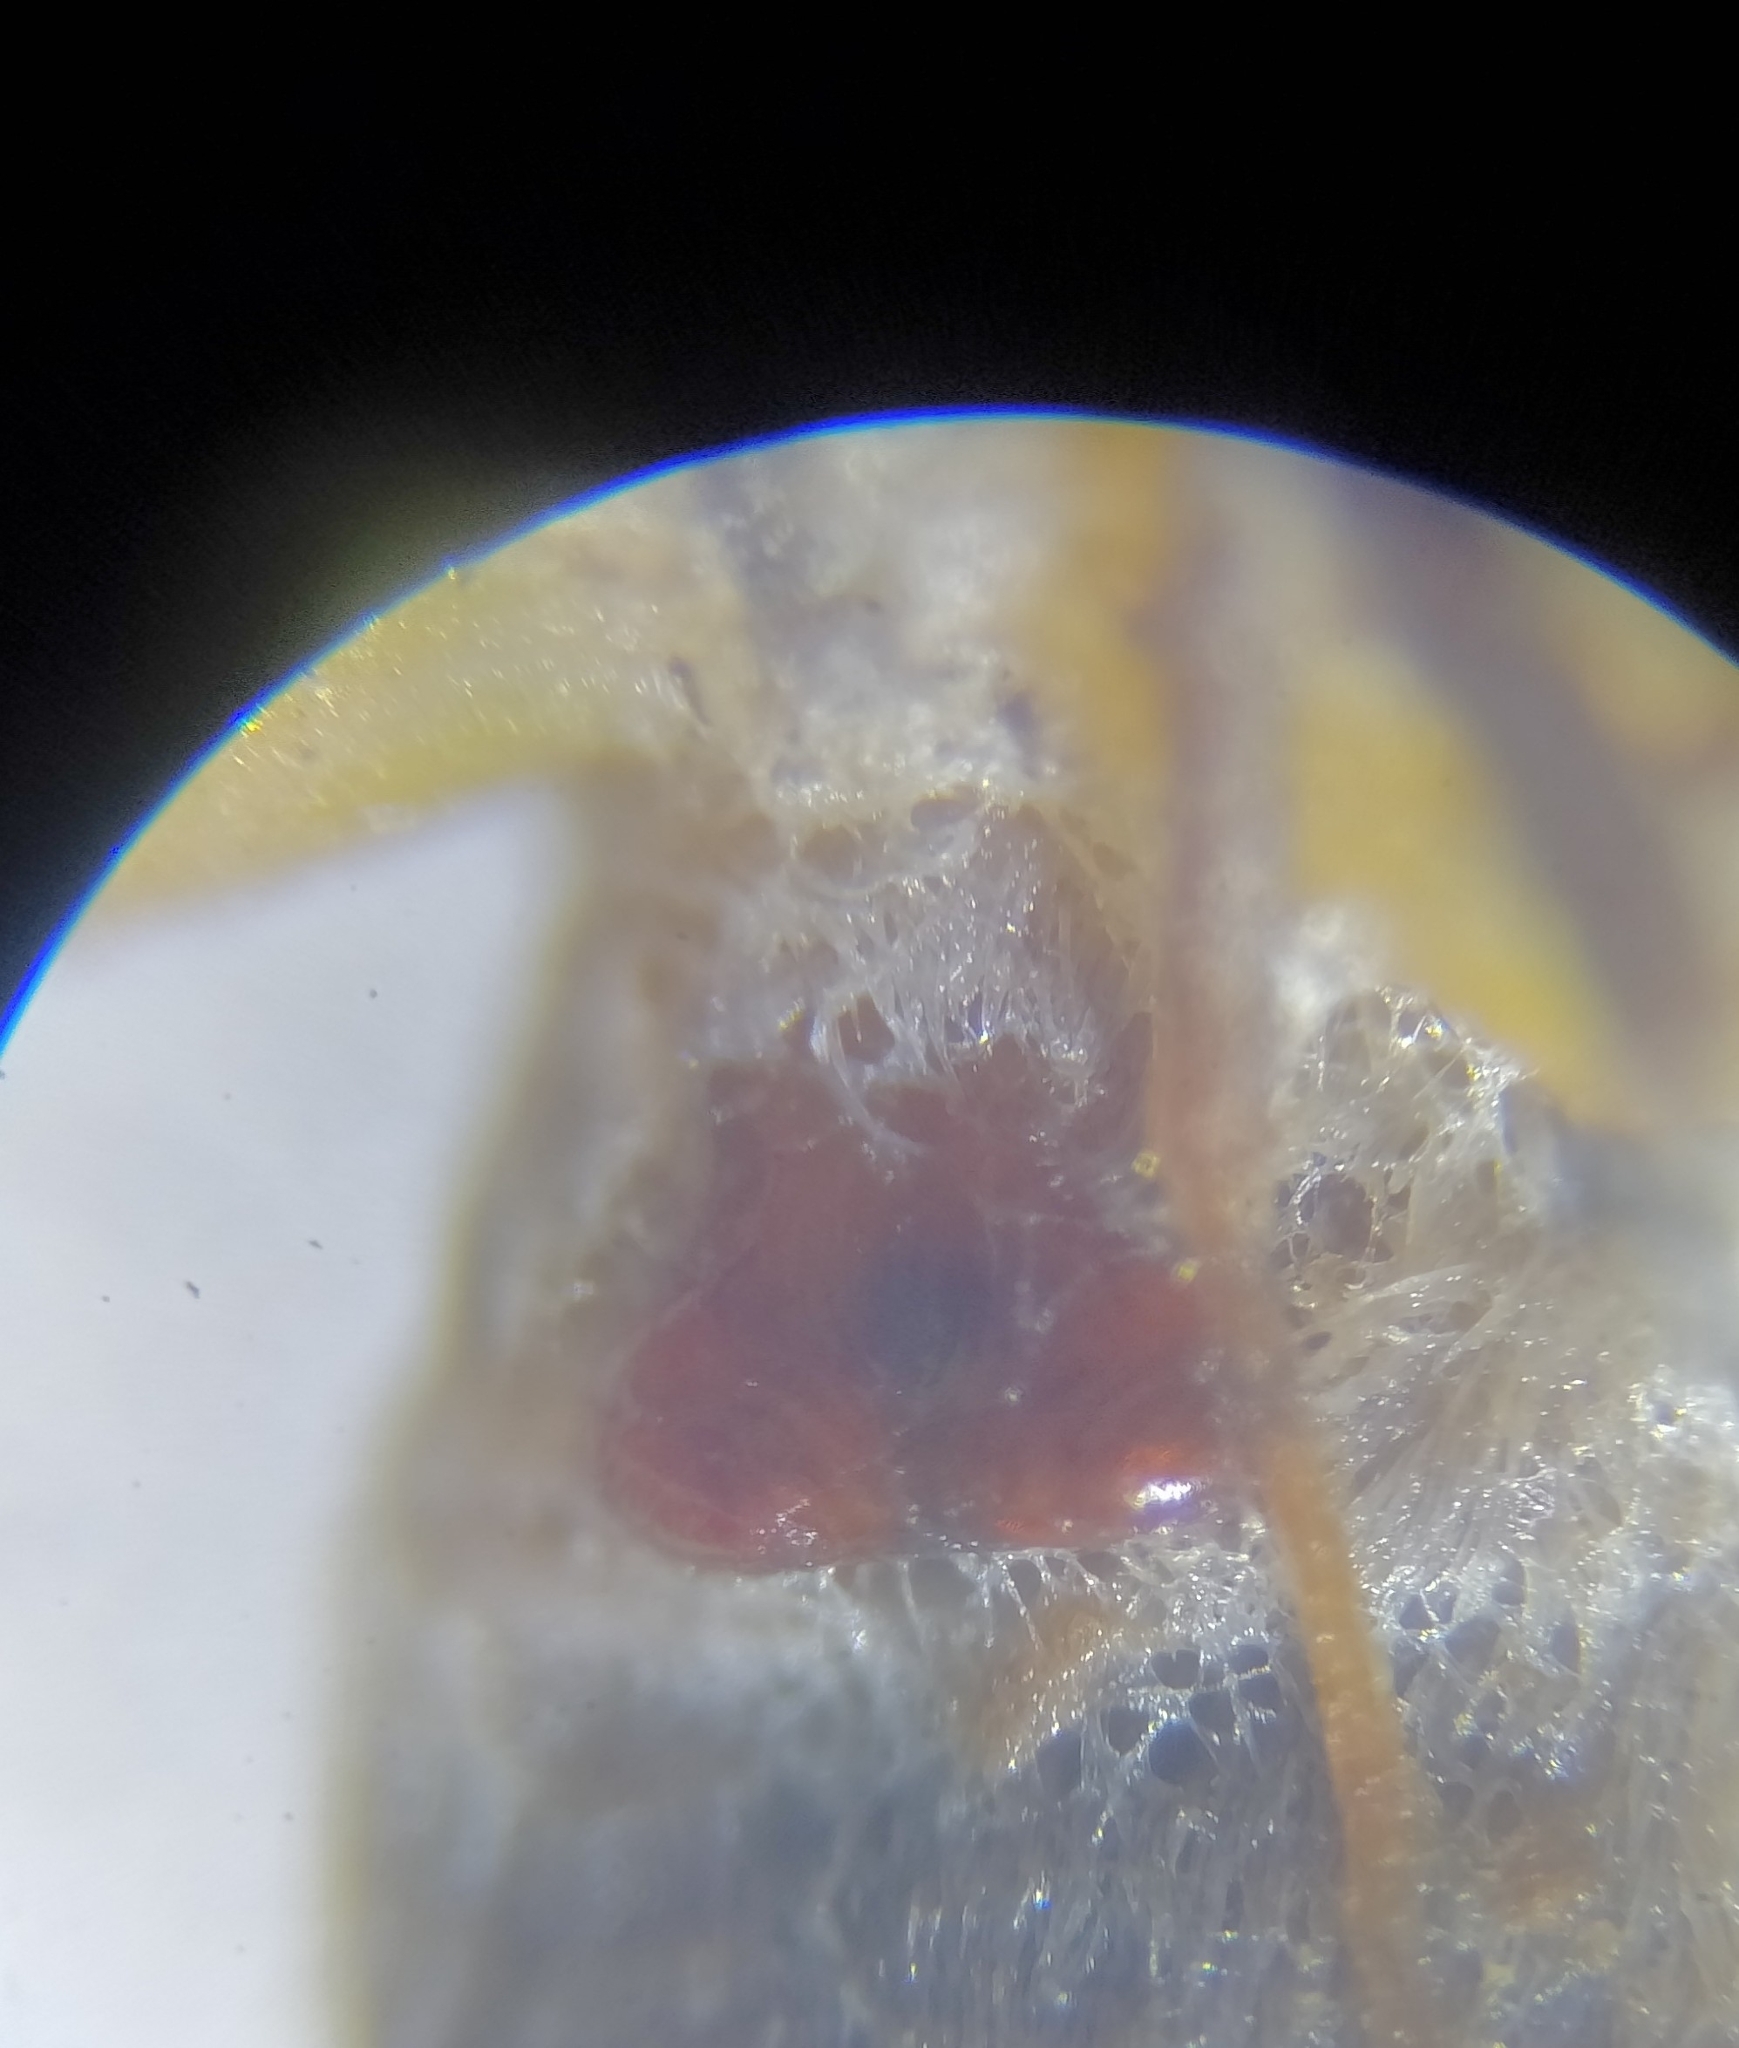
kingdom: Animalia
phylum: Arthropoda
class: Arachnida
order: Araneae
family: Lycosidae
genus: Pardosa
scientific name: Pardosa palustris
